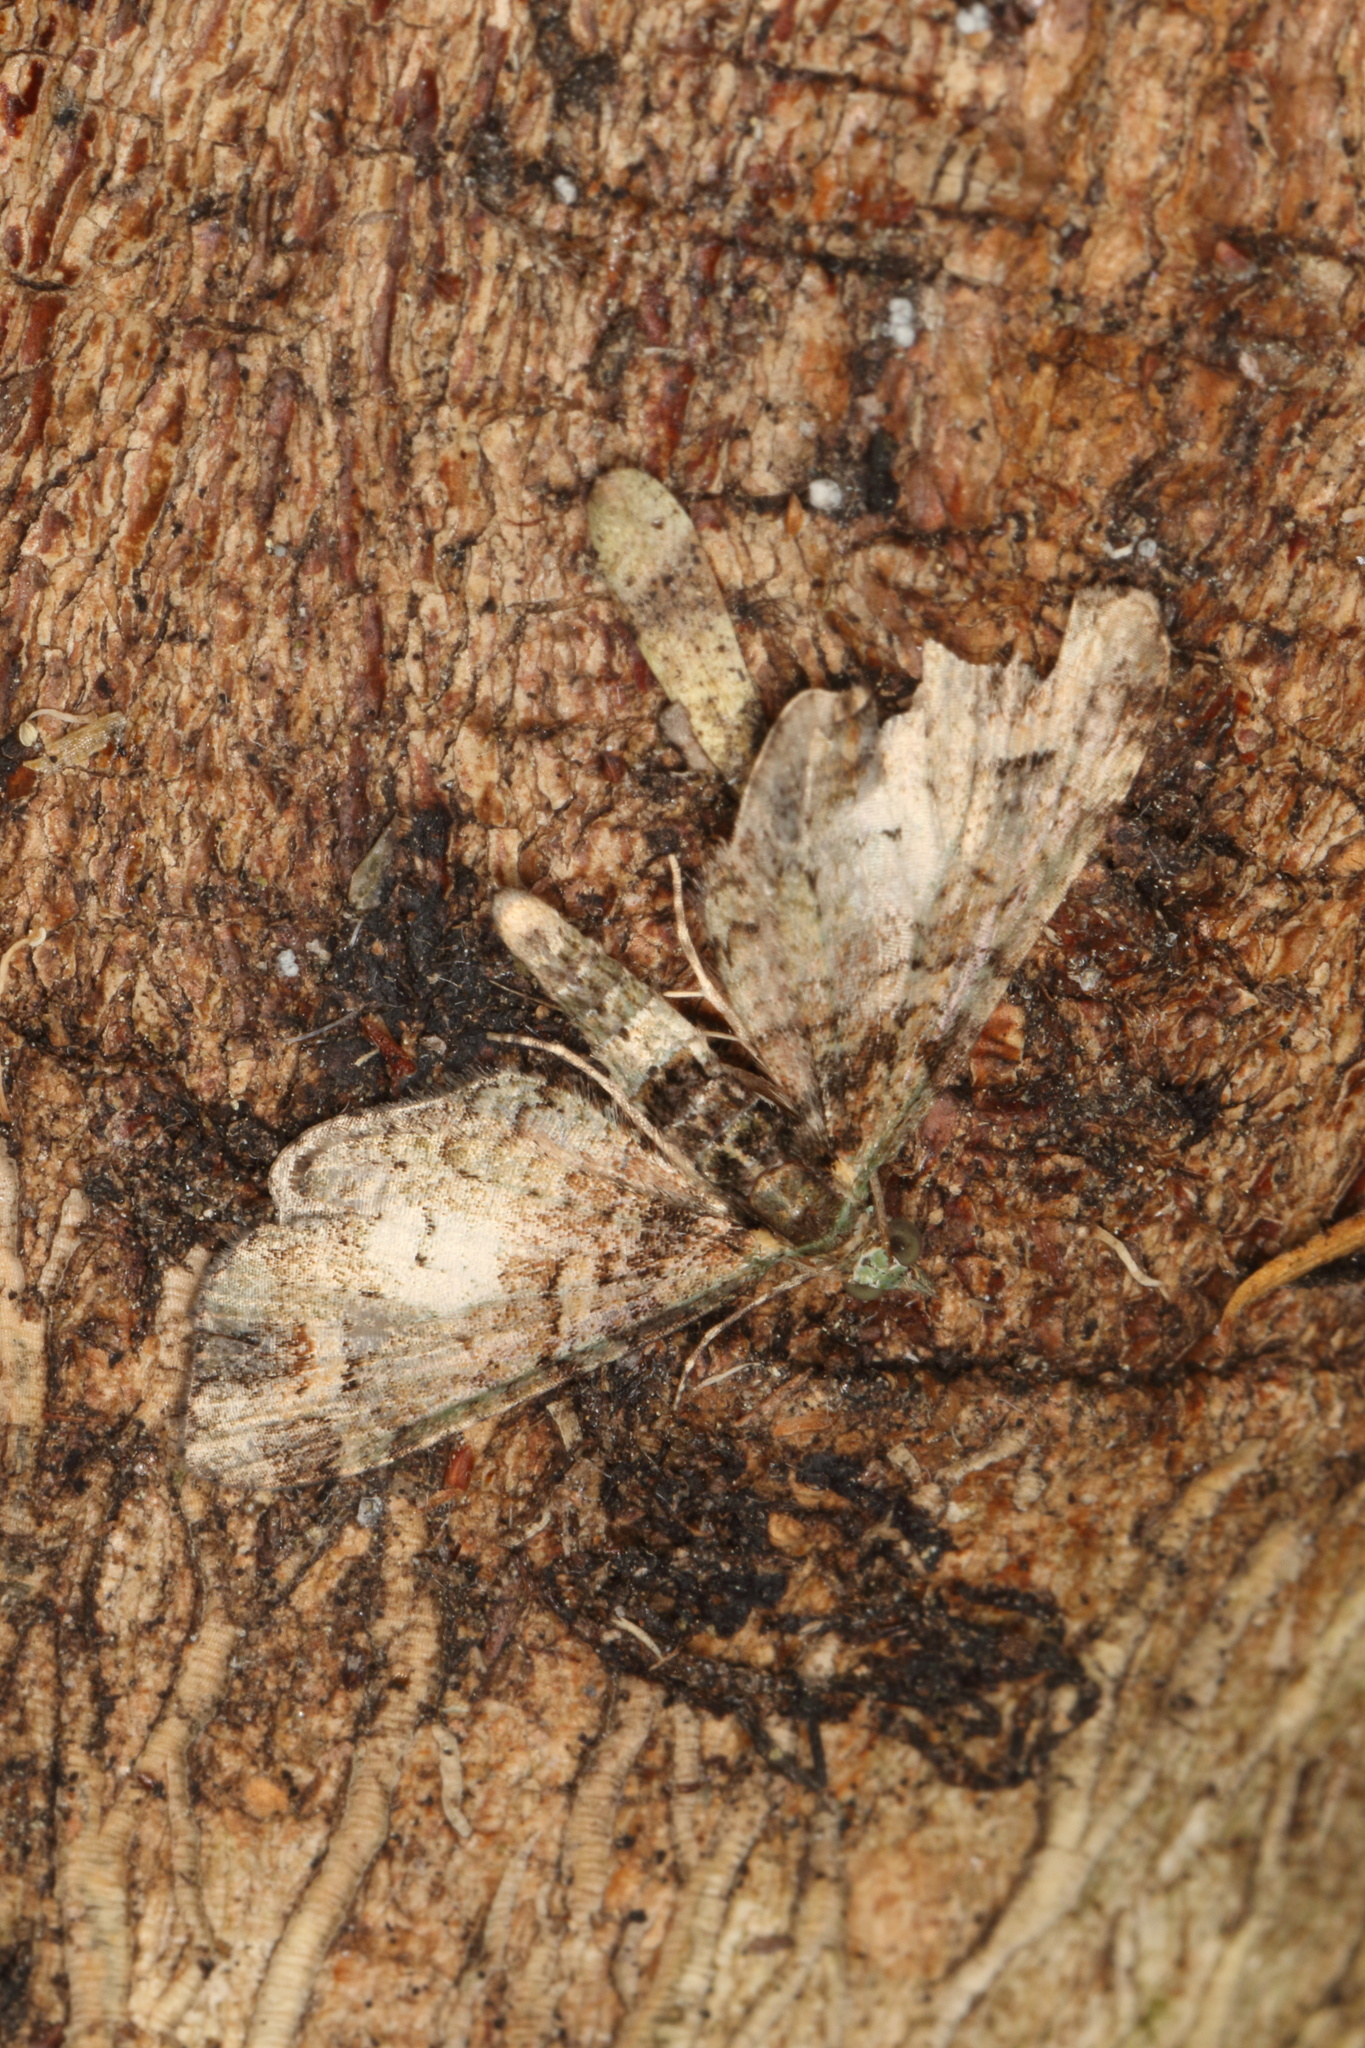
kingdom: Animalia
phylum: Arthropoda
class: Insecta
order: Lepidoptera
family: Geometridae
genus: Idaea
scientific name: Idaea mutanda
